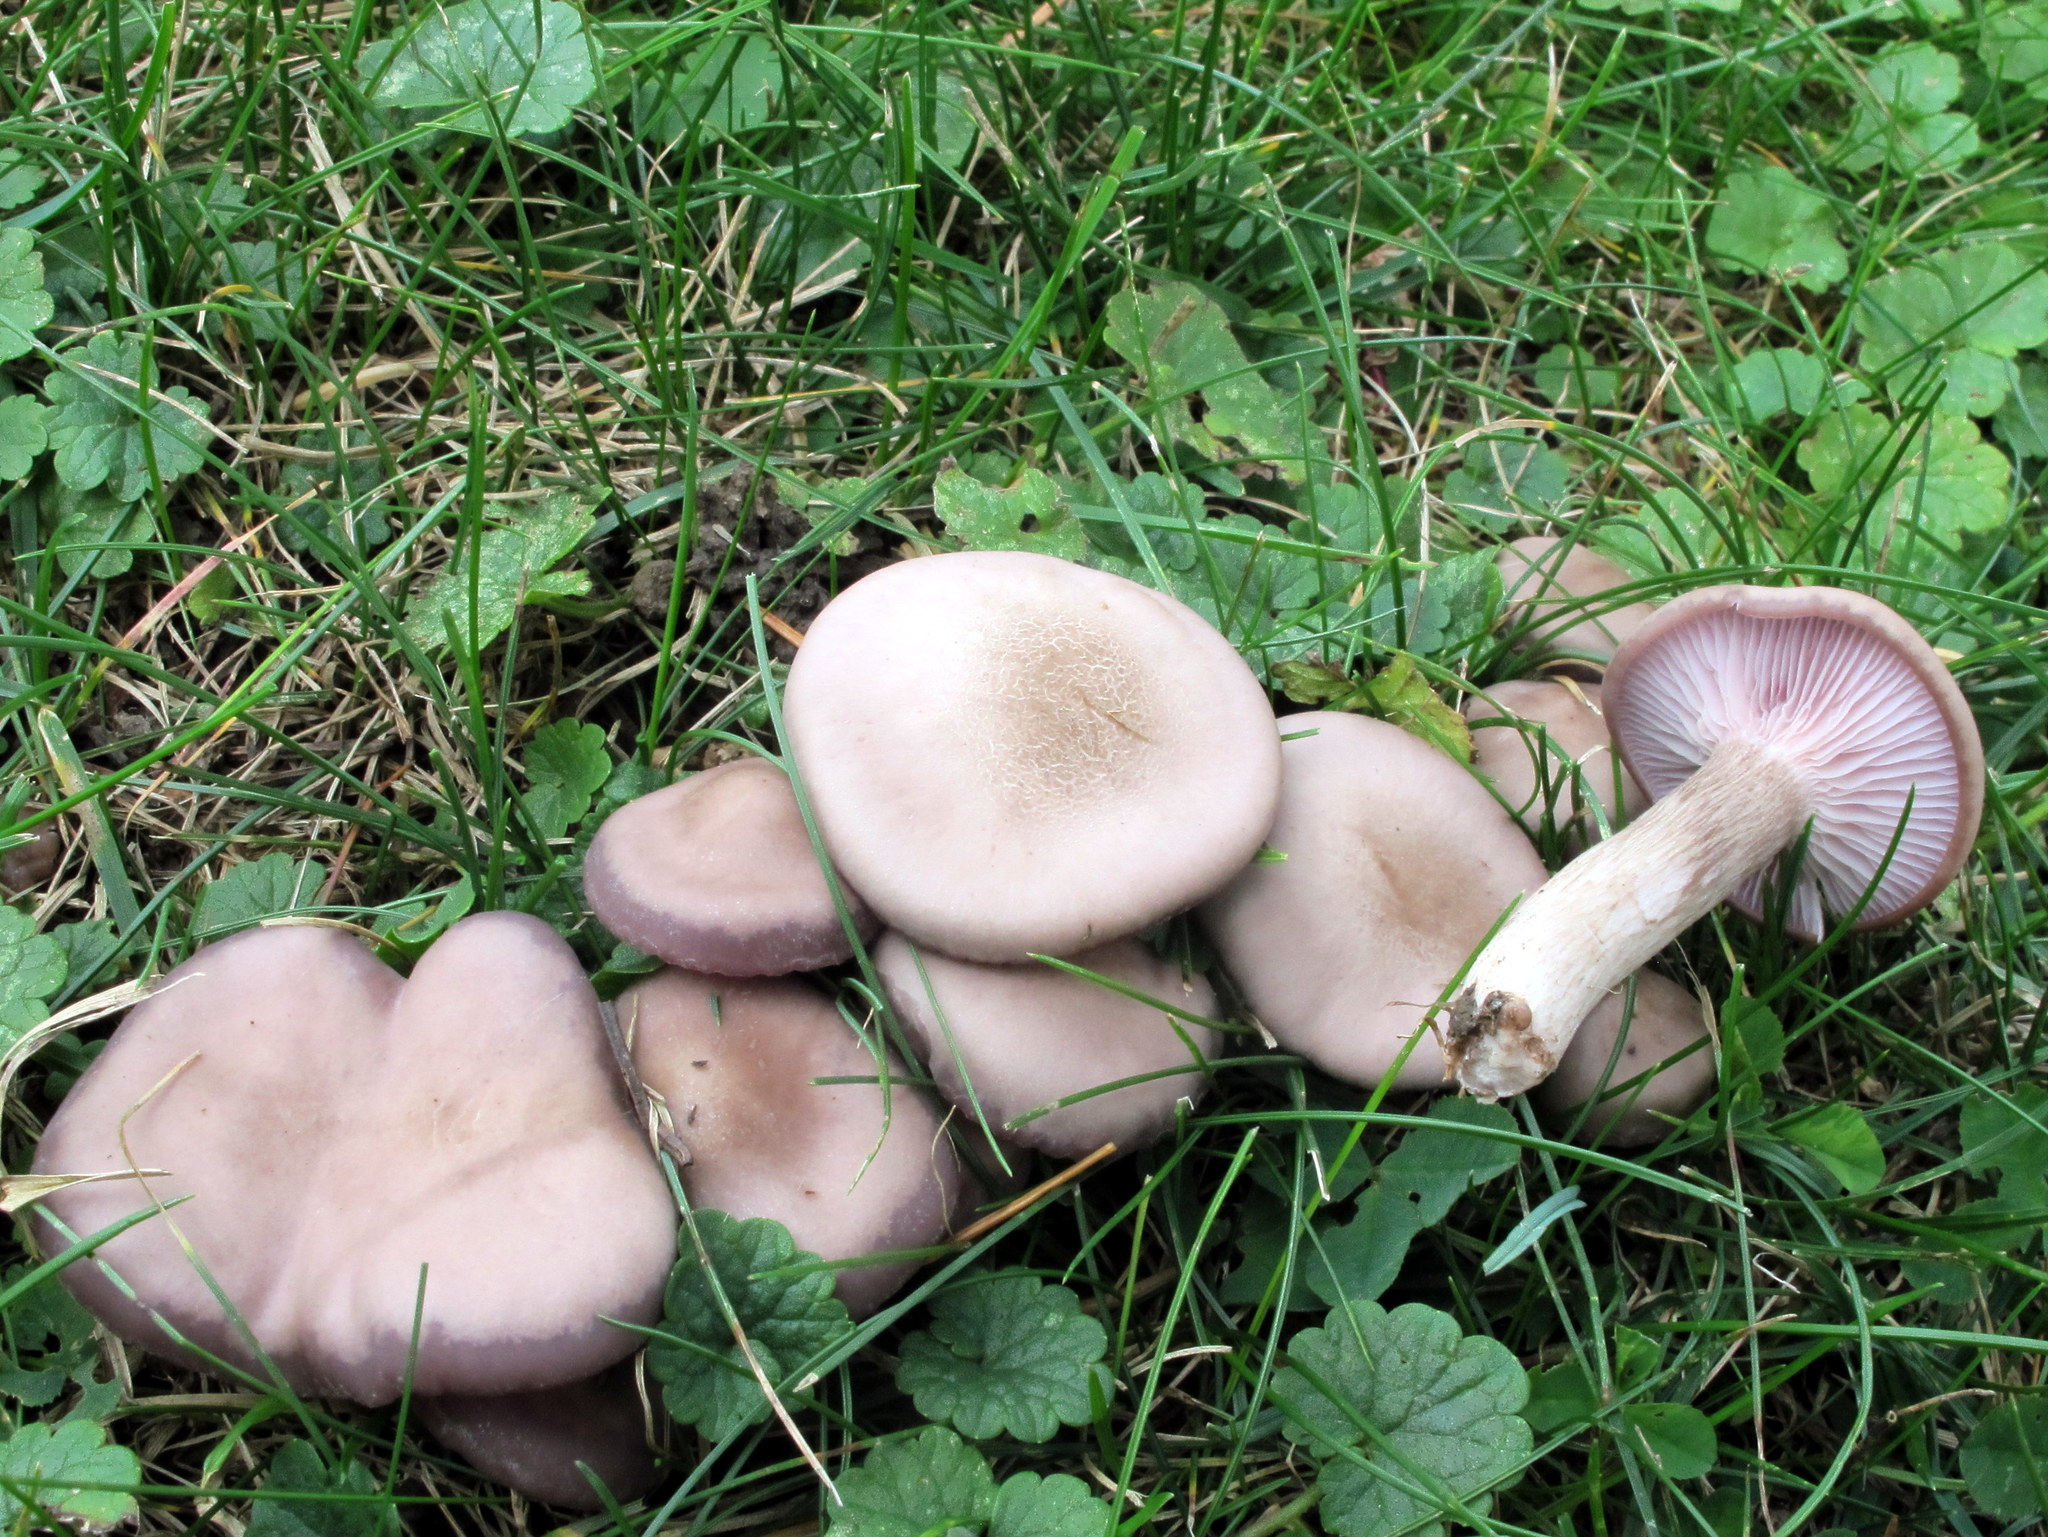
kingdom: Fungi
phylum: Basidiomycota
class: Agaricomycetes
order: Agaricales
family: Tricholomataceae
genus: Lepista
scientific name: Lepista tarda
